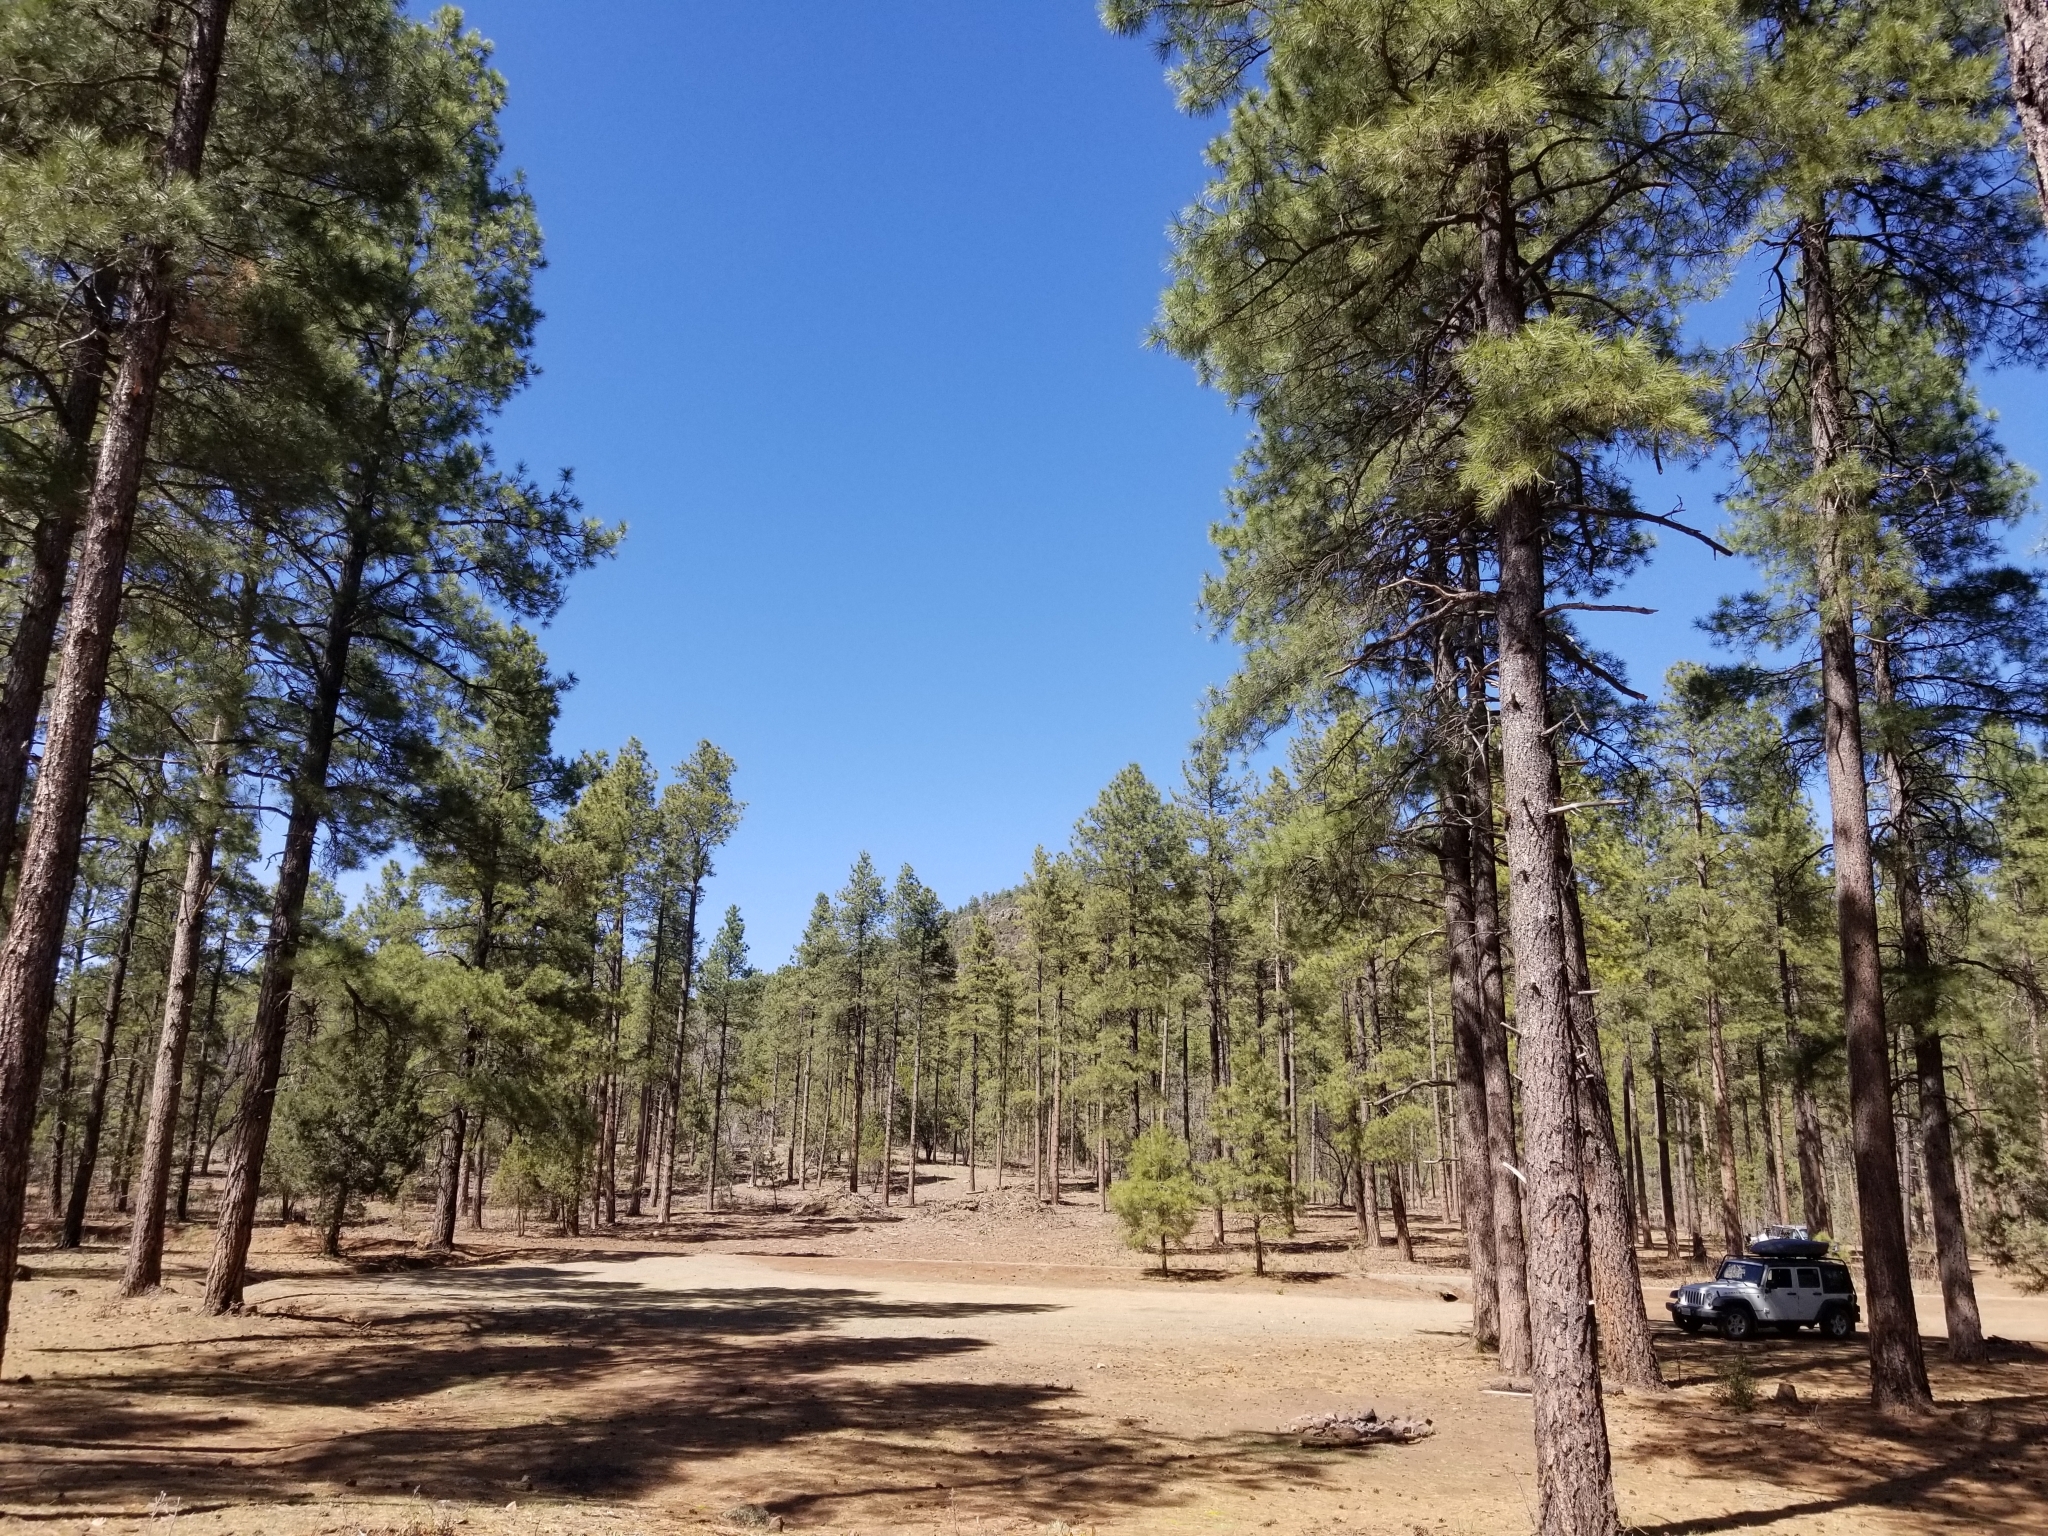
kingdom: Plantae
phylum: Tracheophyta
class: Pinopsida
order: Pinales
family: Pinaceae
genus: Pinus
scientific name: Pinus ponderosa
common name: Western yellow-pine
